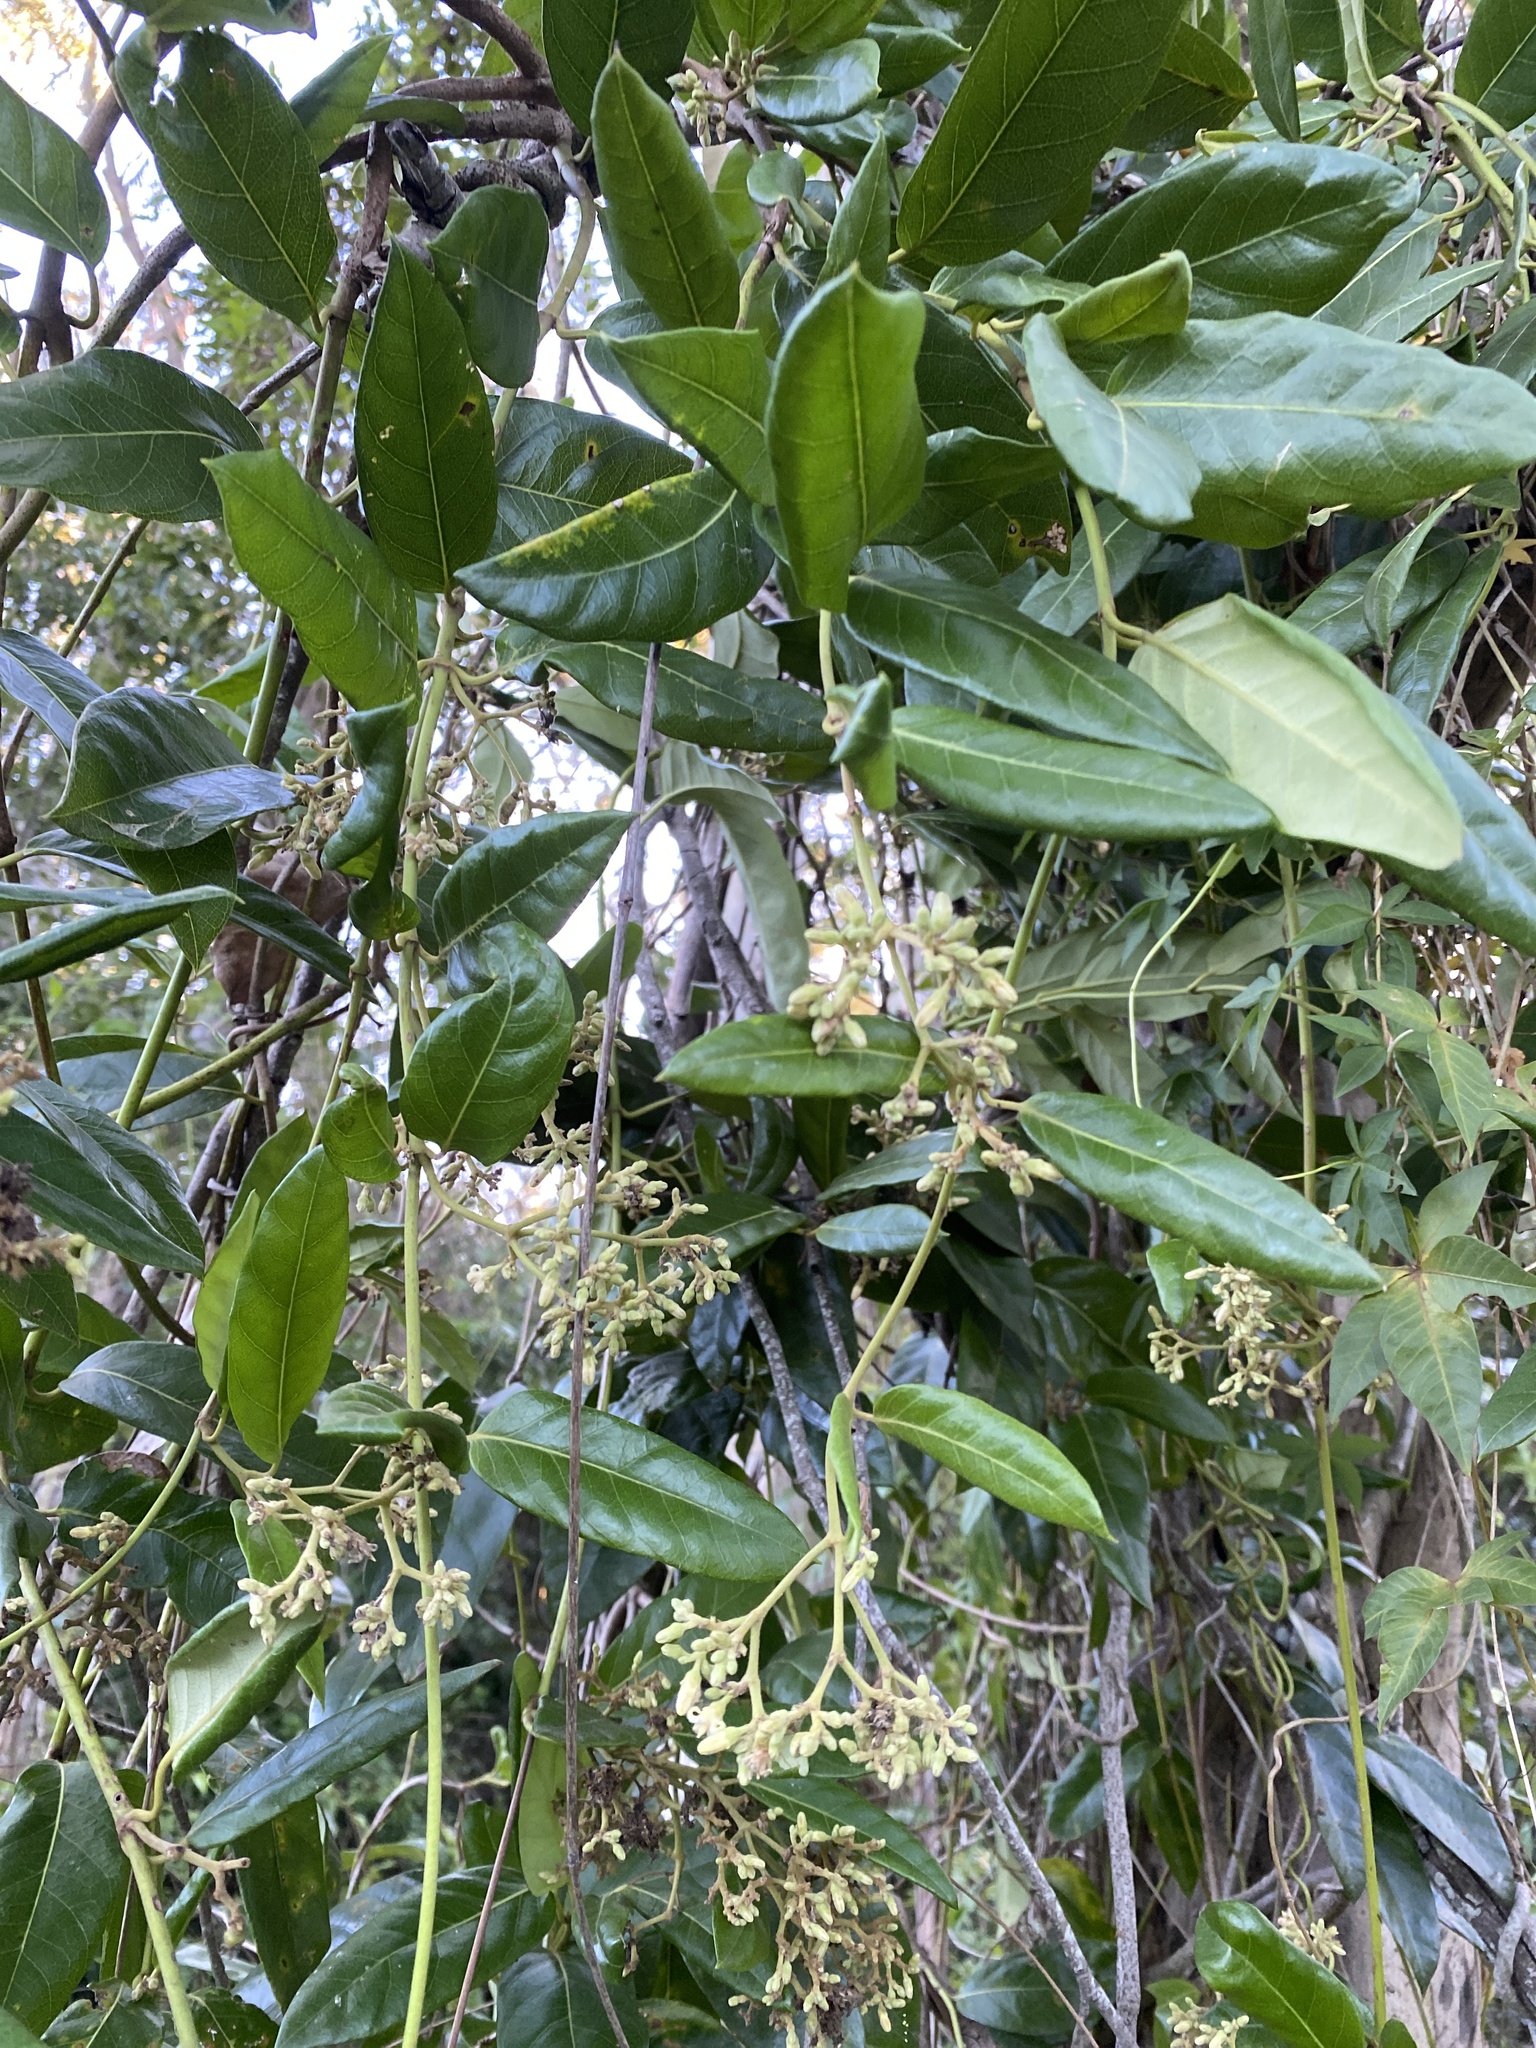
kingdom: Plantae
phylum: Tracheophyta
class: Magnoliopsida
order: Gentianales
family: Apocynaceae
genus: Parsonsia
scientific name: Parsonsia straminea
